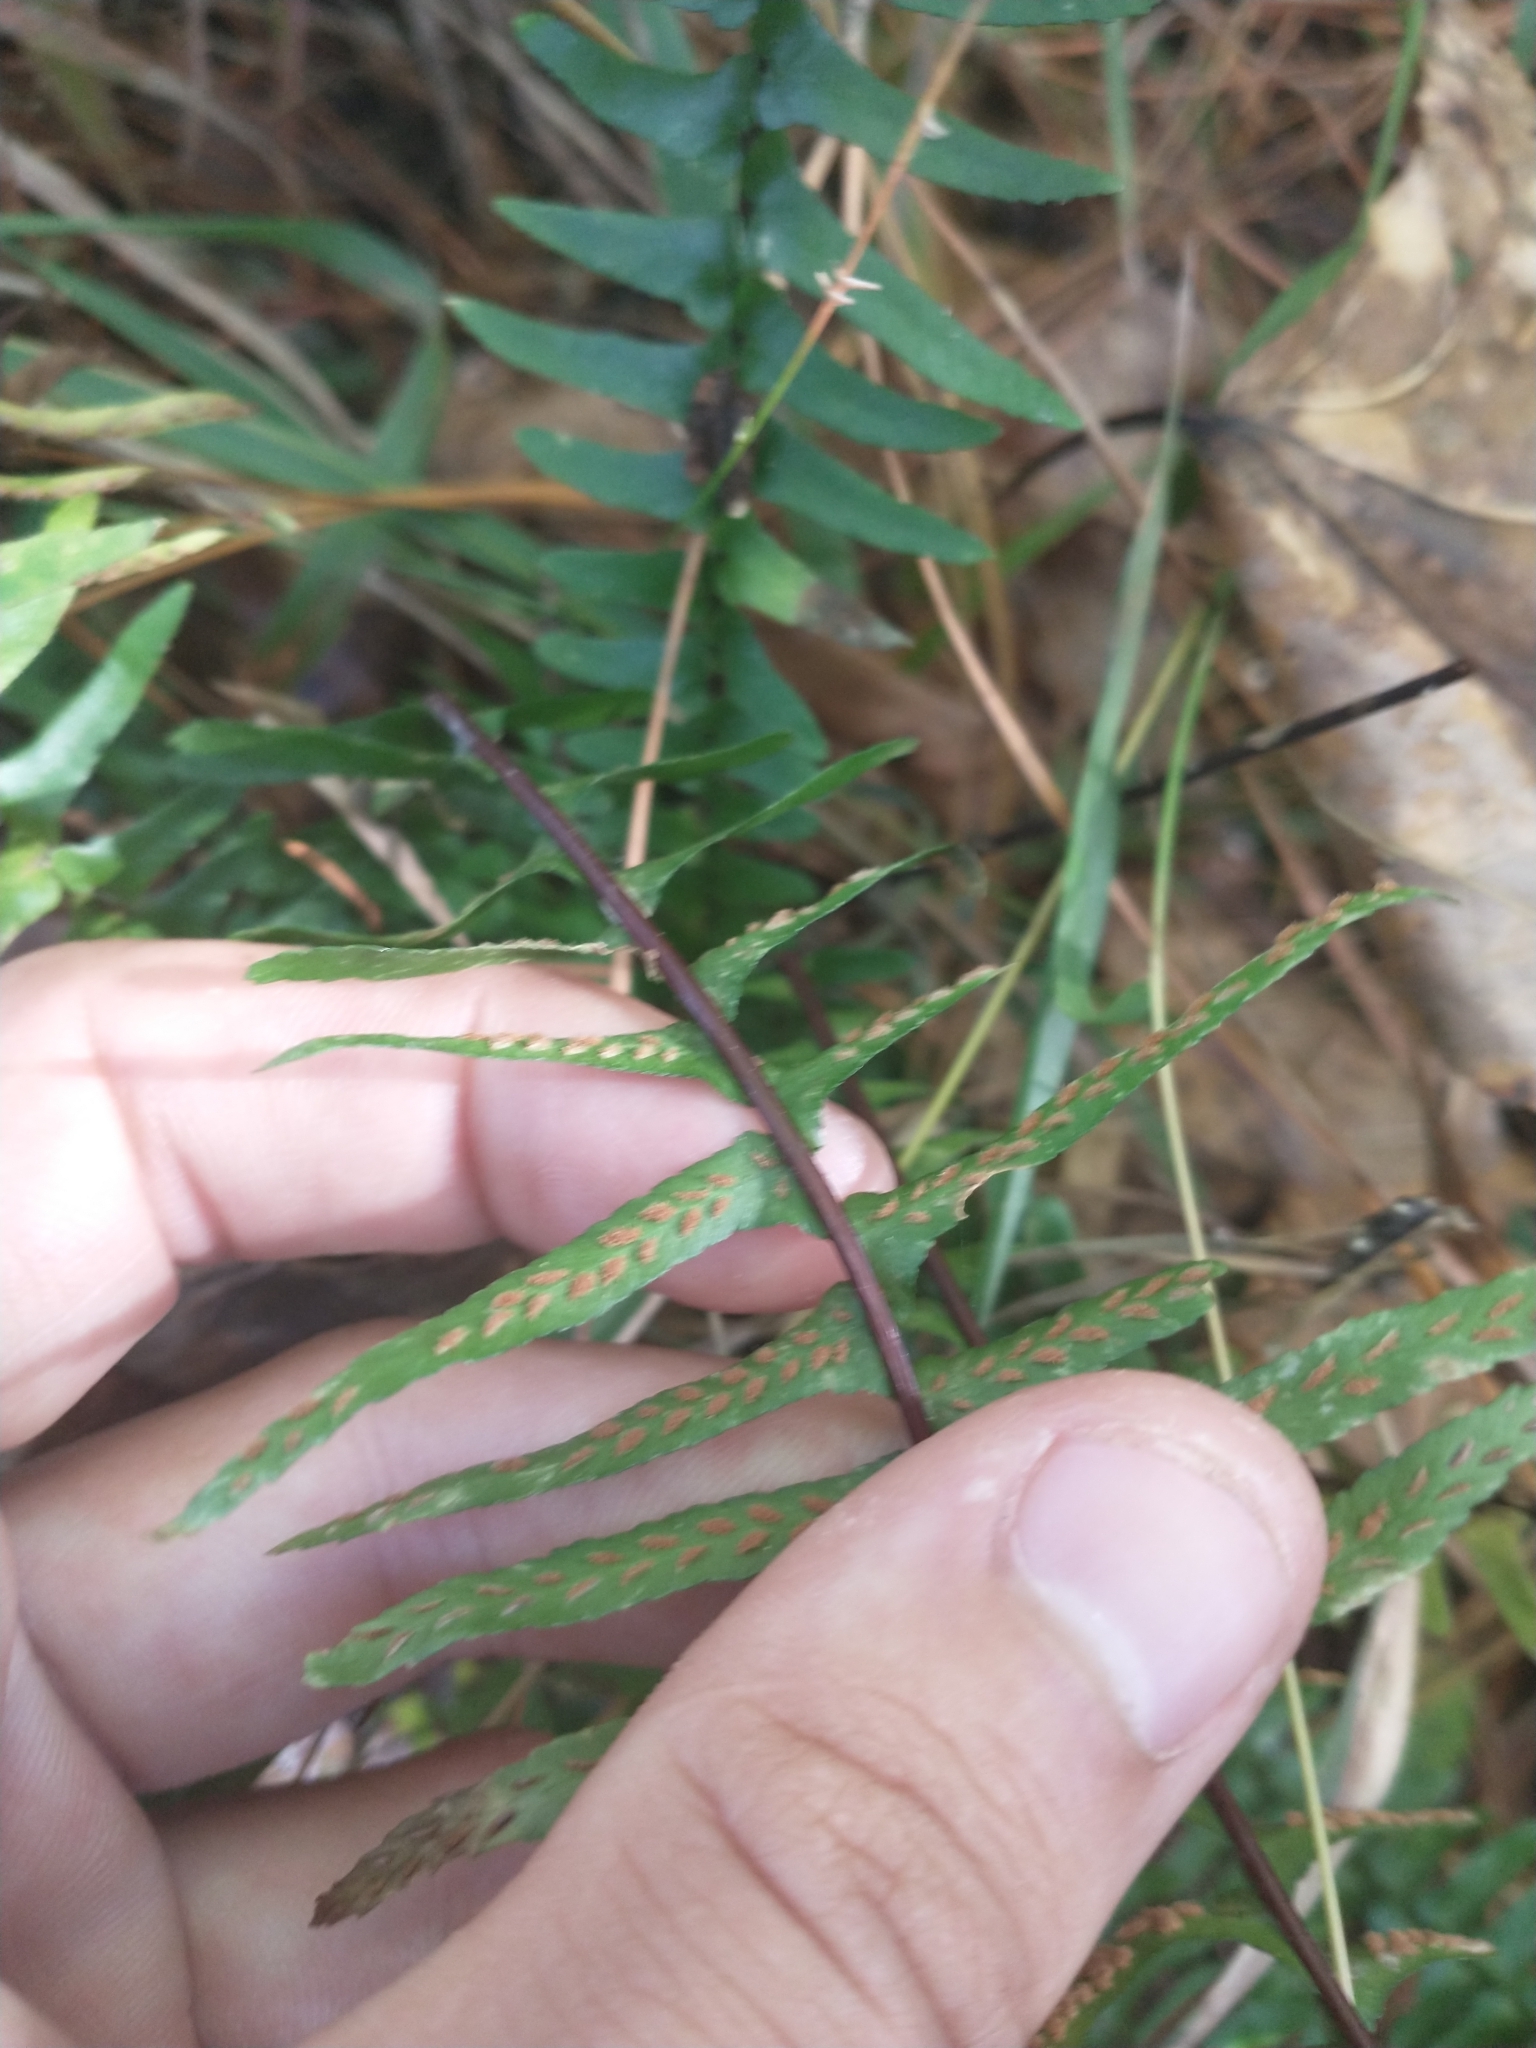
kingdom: Plantae
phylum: Tracheophyta
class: Polypodiopsida
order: Polypodiales
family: Aspleniaceae
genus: Asplenium
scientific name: Asplenium platyneuron
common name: Ebony spleenwort
